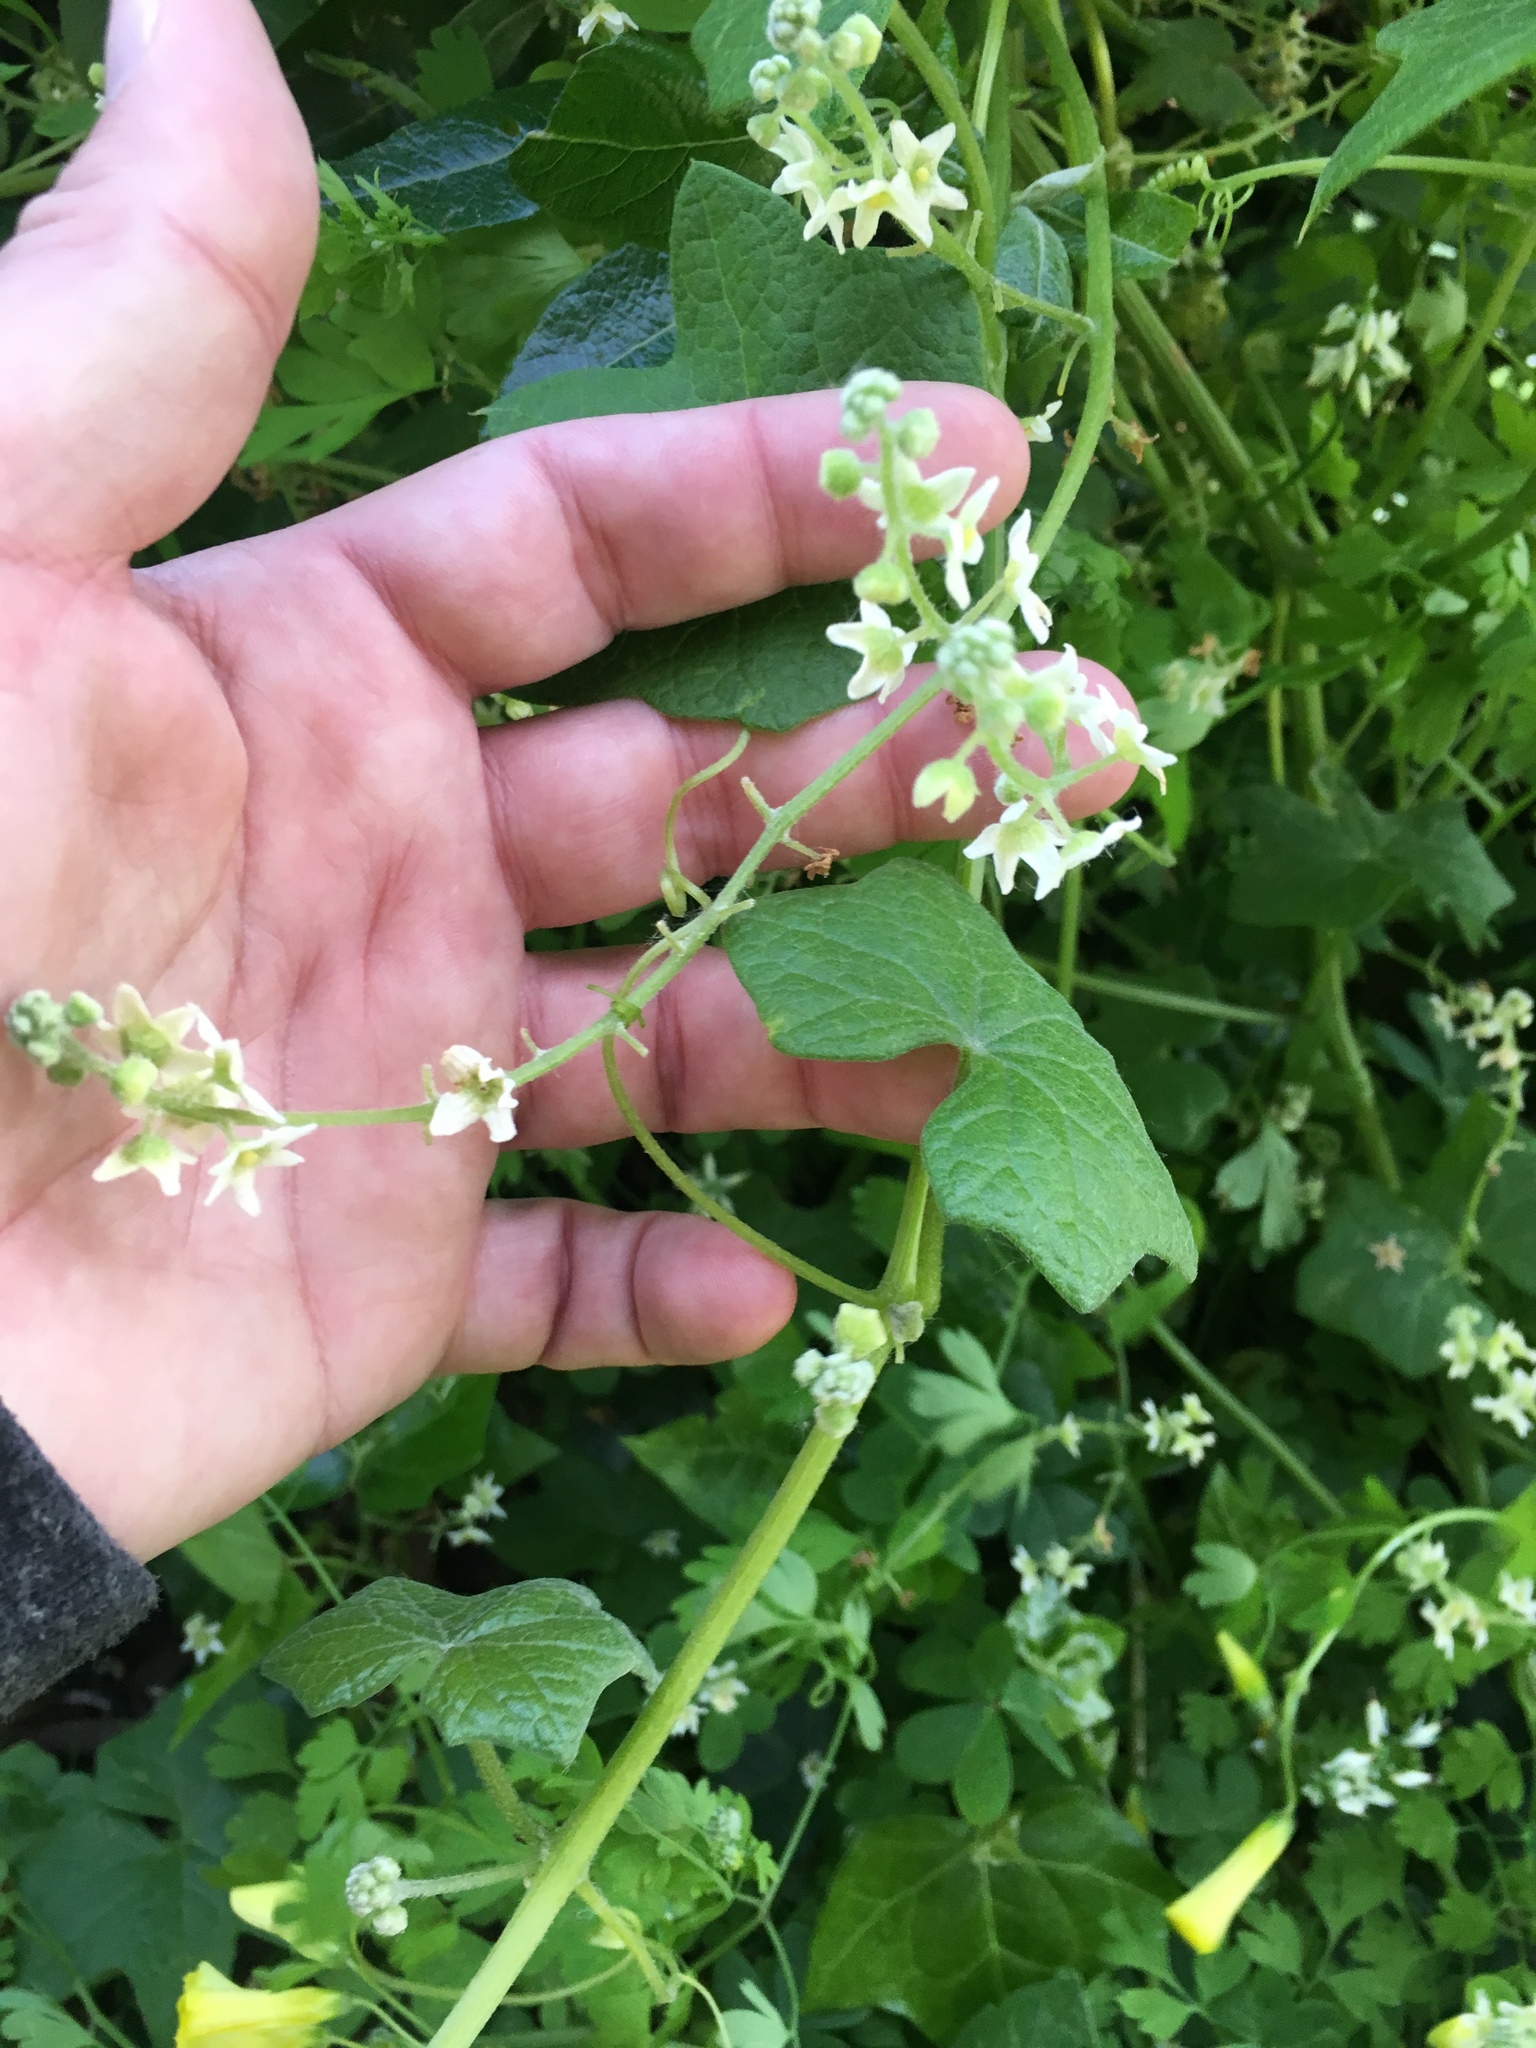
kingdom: Plantae
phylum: Tracheophyta
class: Magnoliopsida
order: Cucurbitales
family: Cucurbitaceae
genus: Marah
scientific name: Marah fabacea
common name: California manroot
